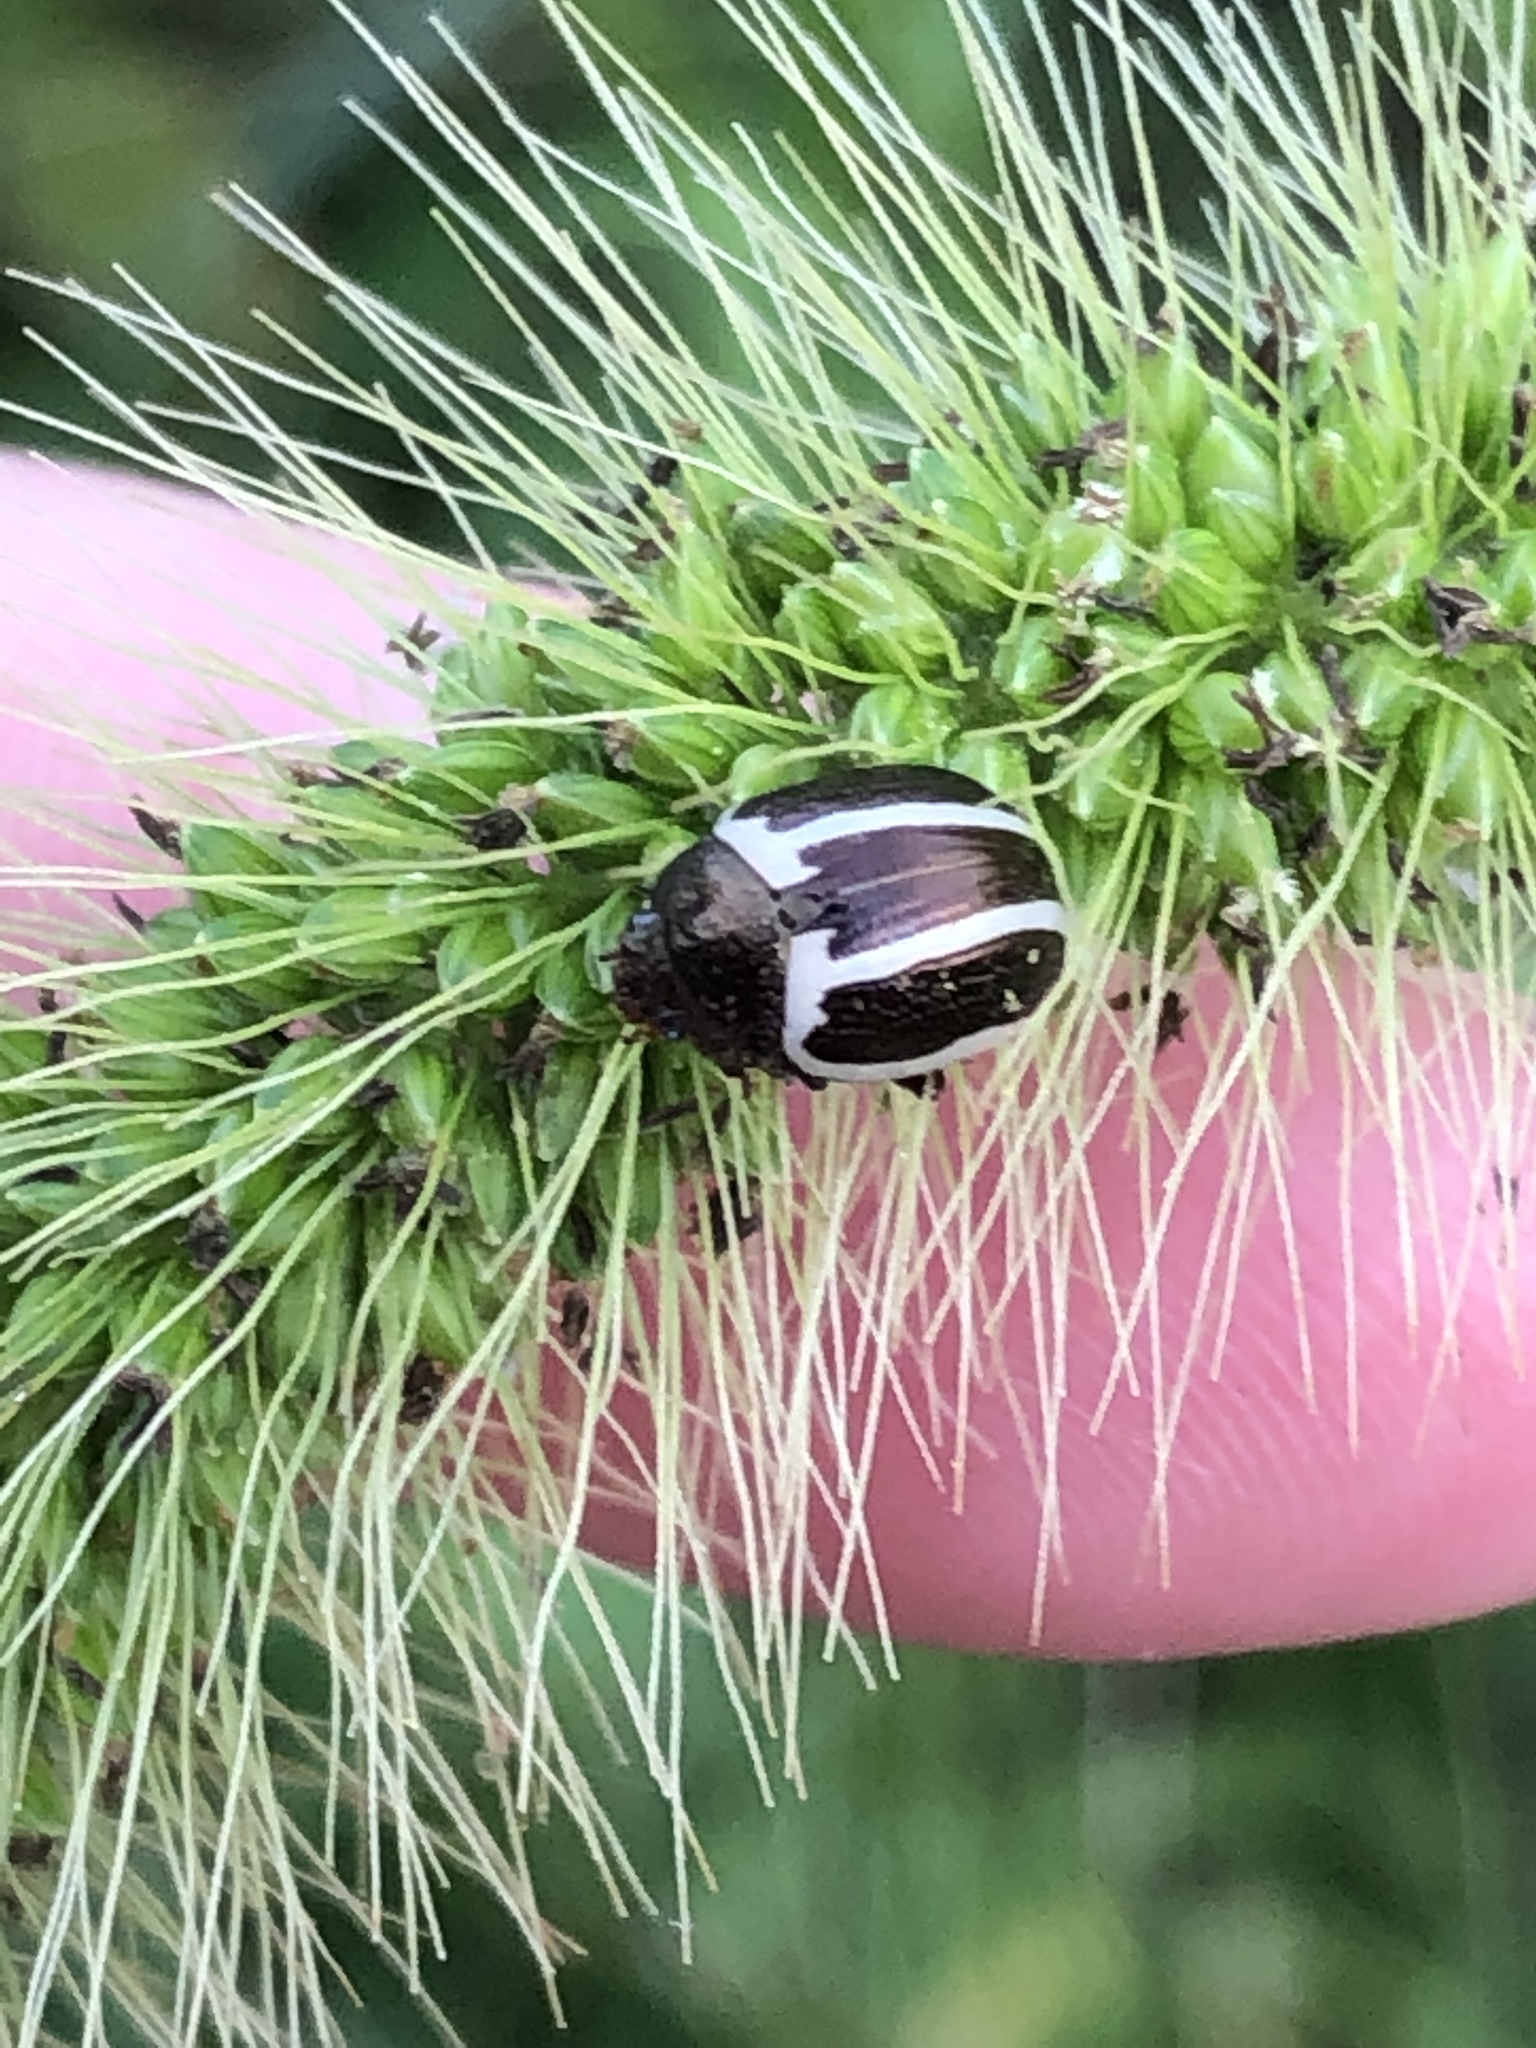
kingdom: Animalia
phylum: Arthropoda
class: Insecta
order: Coleoptera
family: Chrysomelidae
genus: Calligrapha
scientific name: Calligrapha
